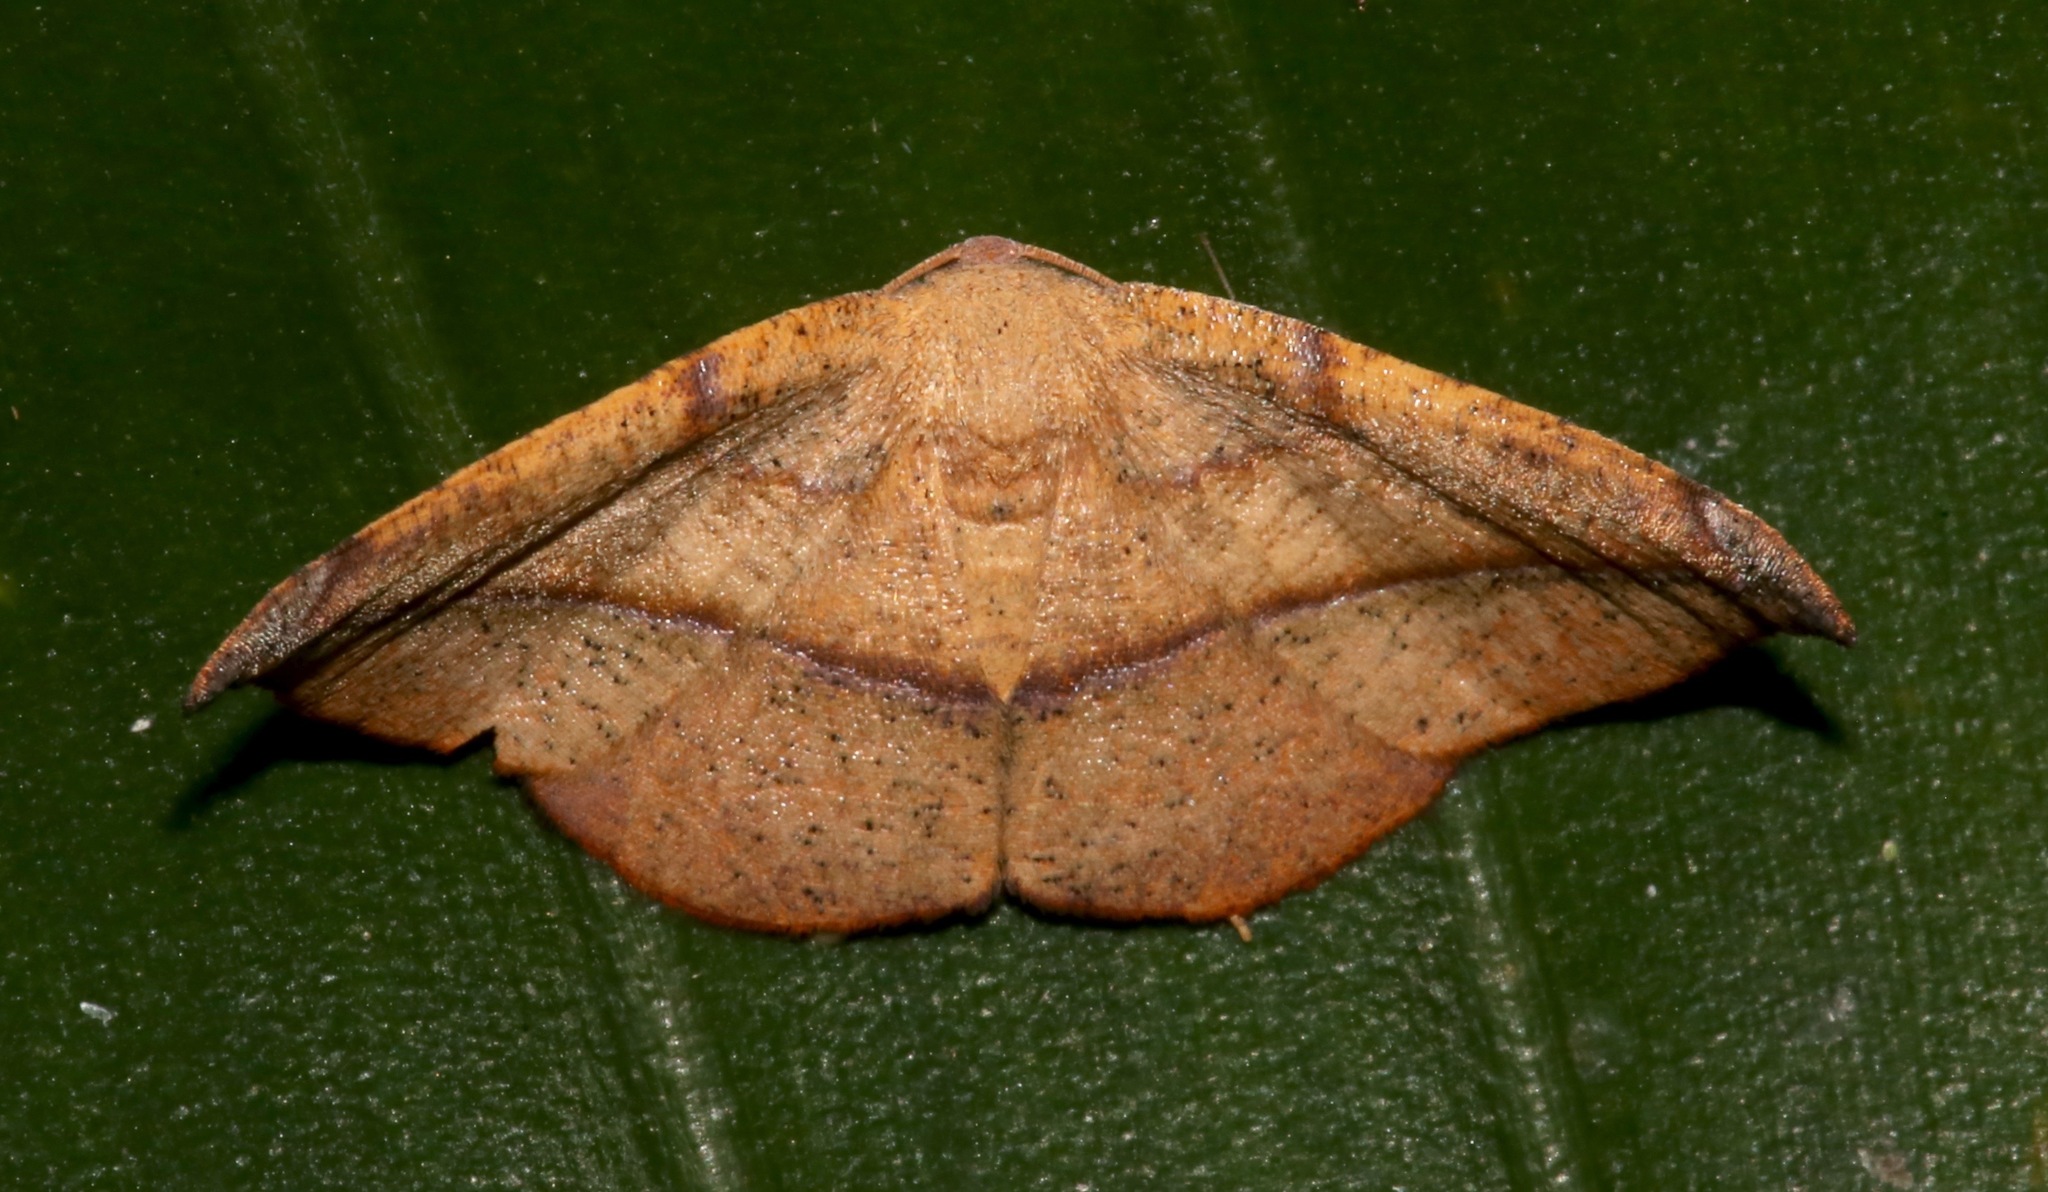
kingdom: Animalia
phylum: Arthropoda
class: Insecta
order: Lepidoptera
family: Geometridae
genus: Patalene
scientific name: Patalene olyzonaria
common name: Juniper geometer moth
